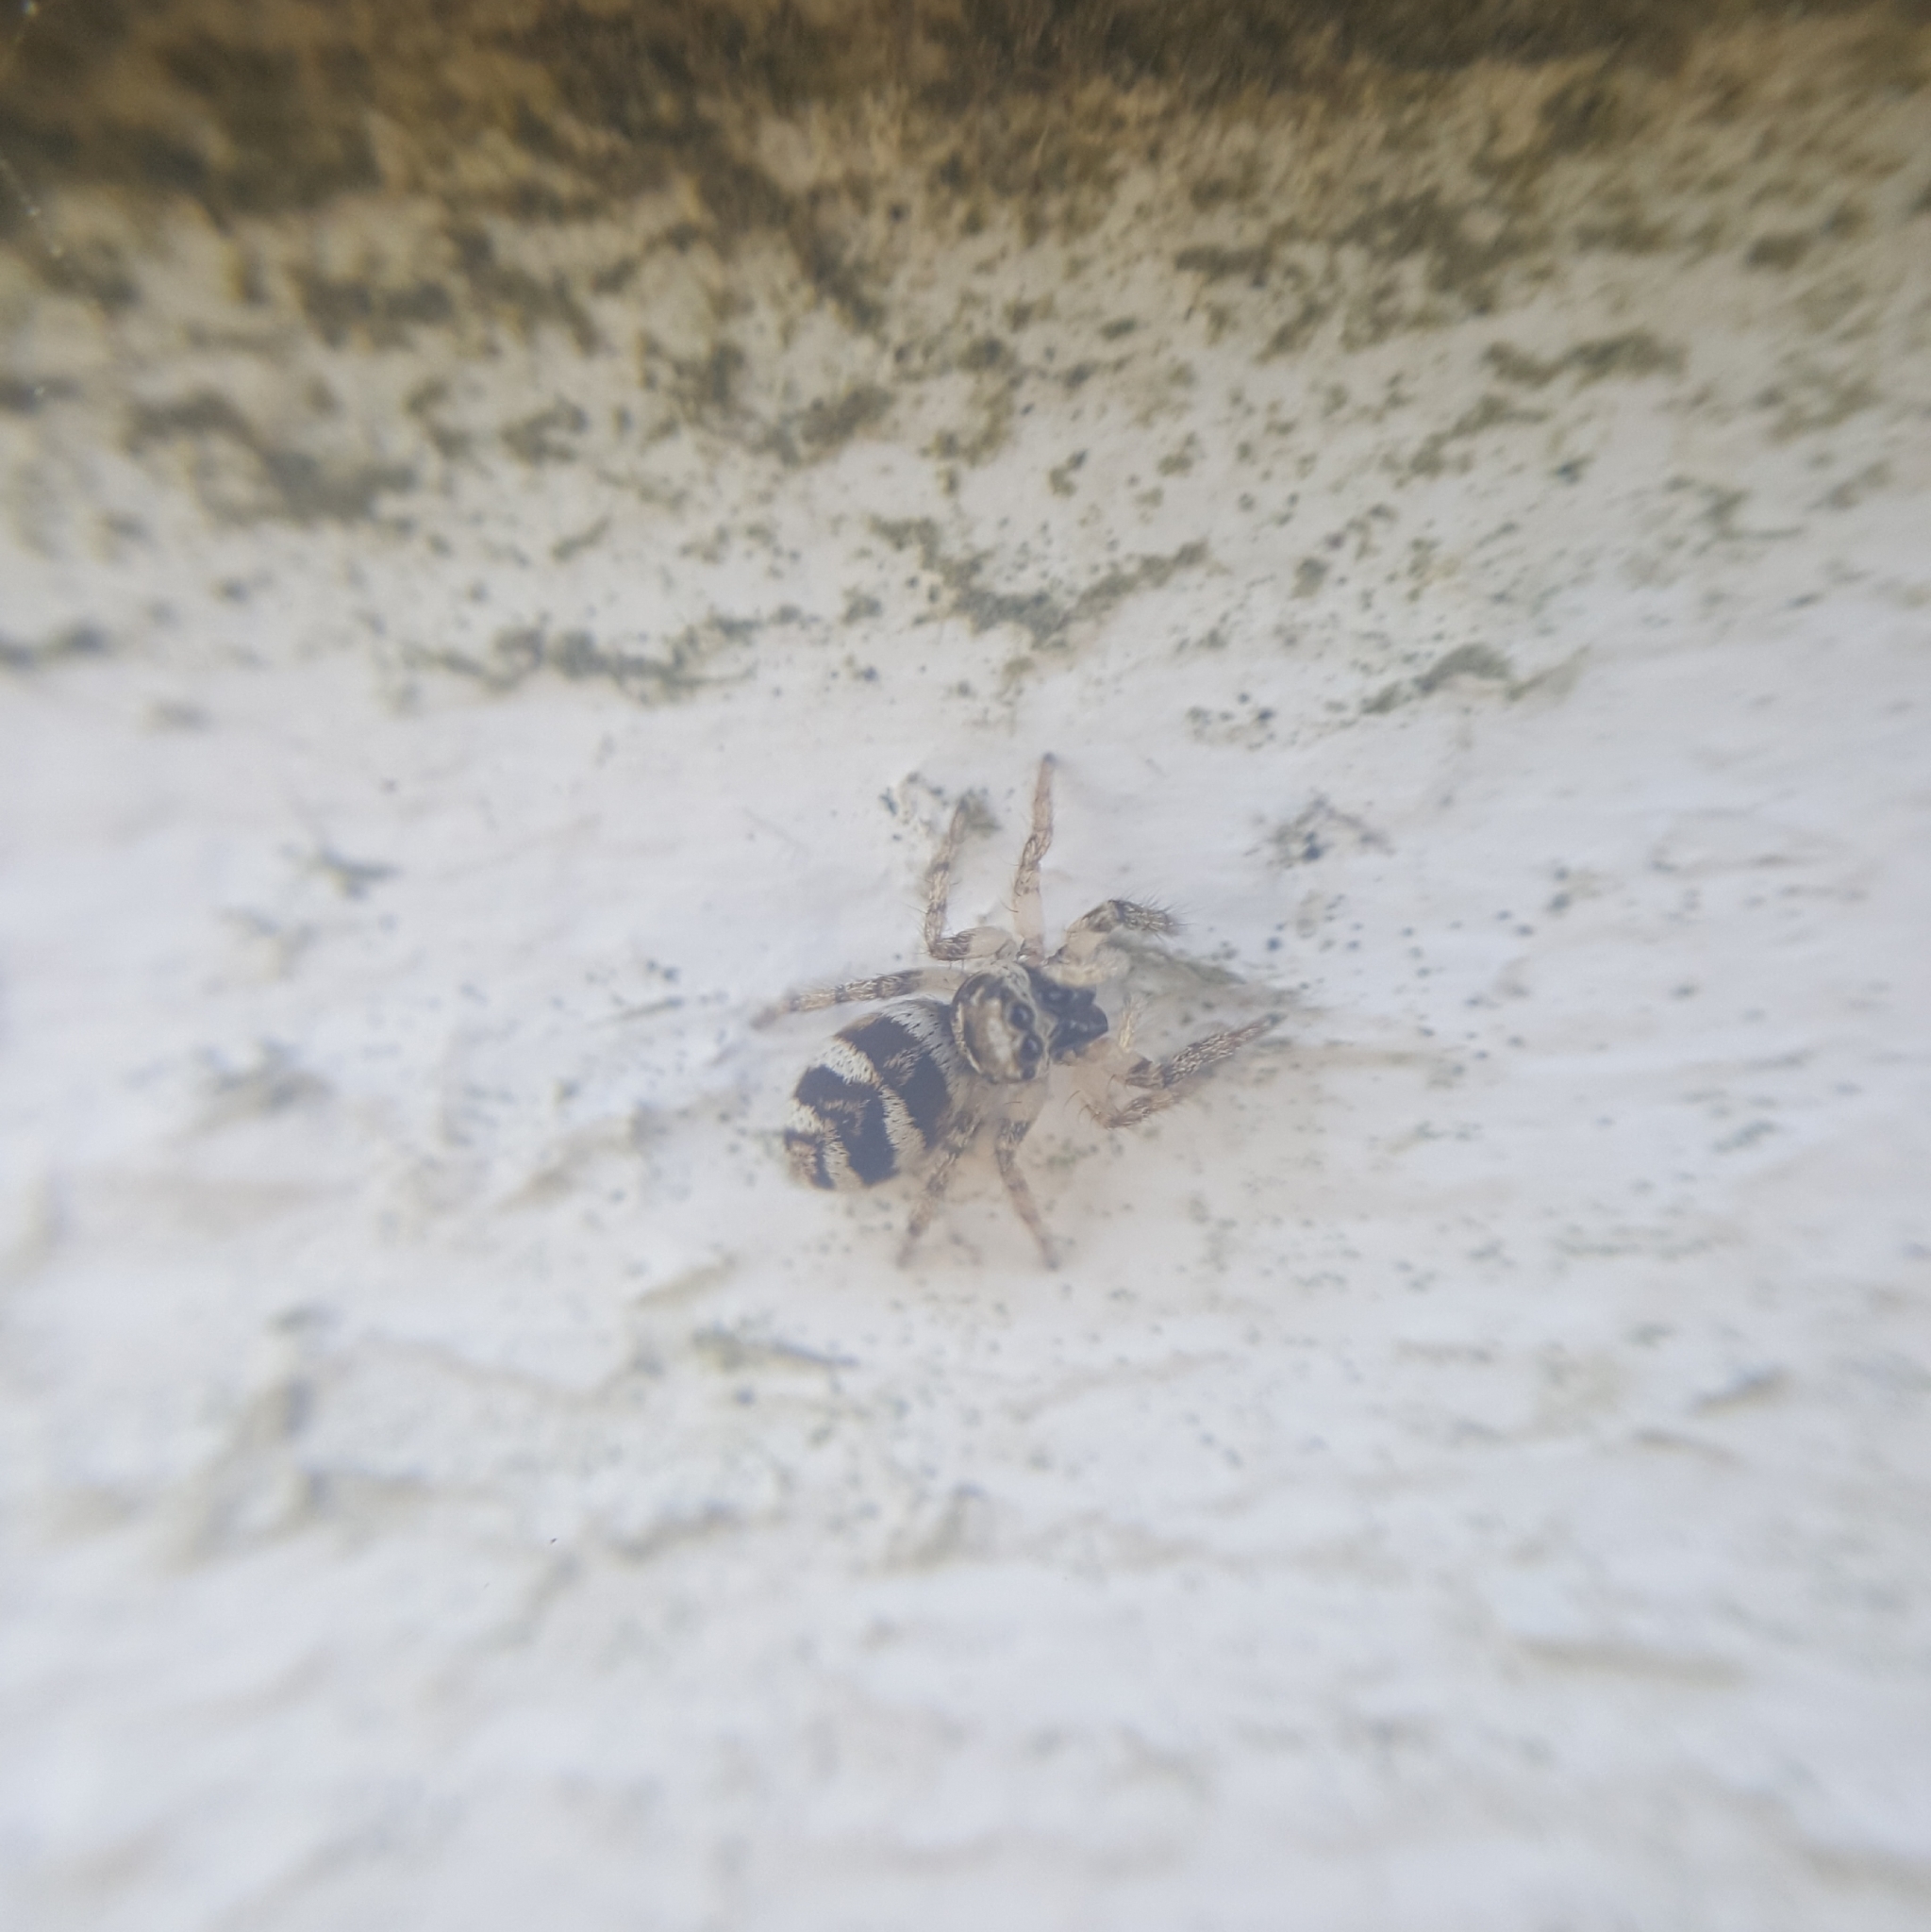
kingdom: Animalia
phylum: Arthropoda
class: Arachnida
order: Araneae
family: Salticidae
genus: Salticus
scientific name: Salticus scenicus
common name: Zebra jumper
